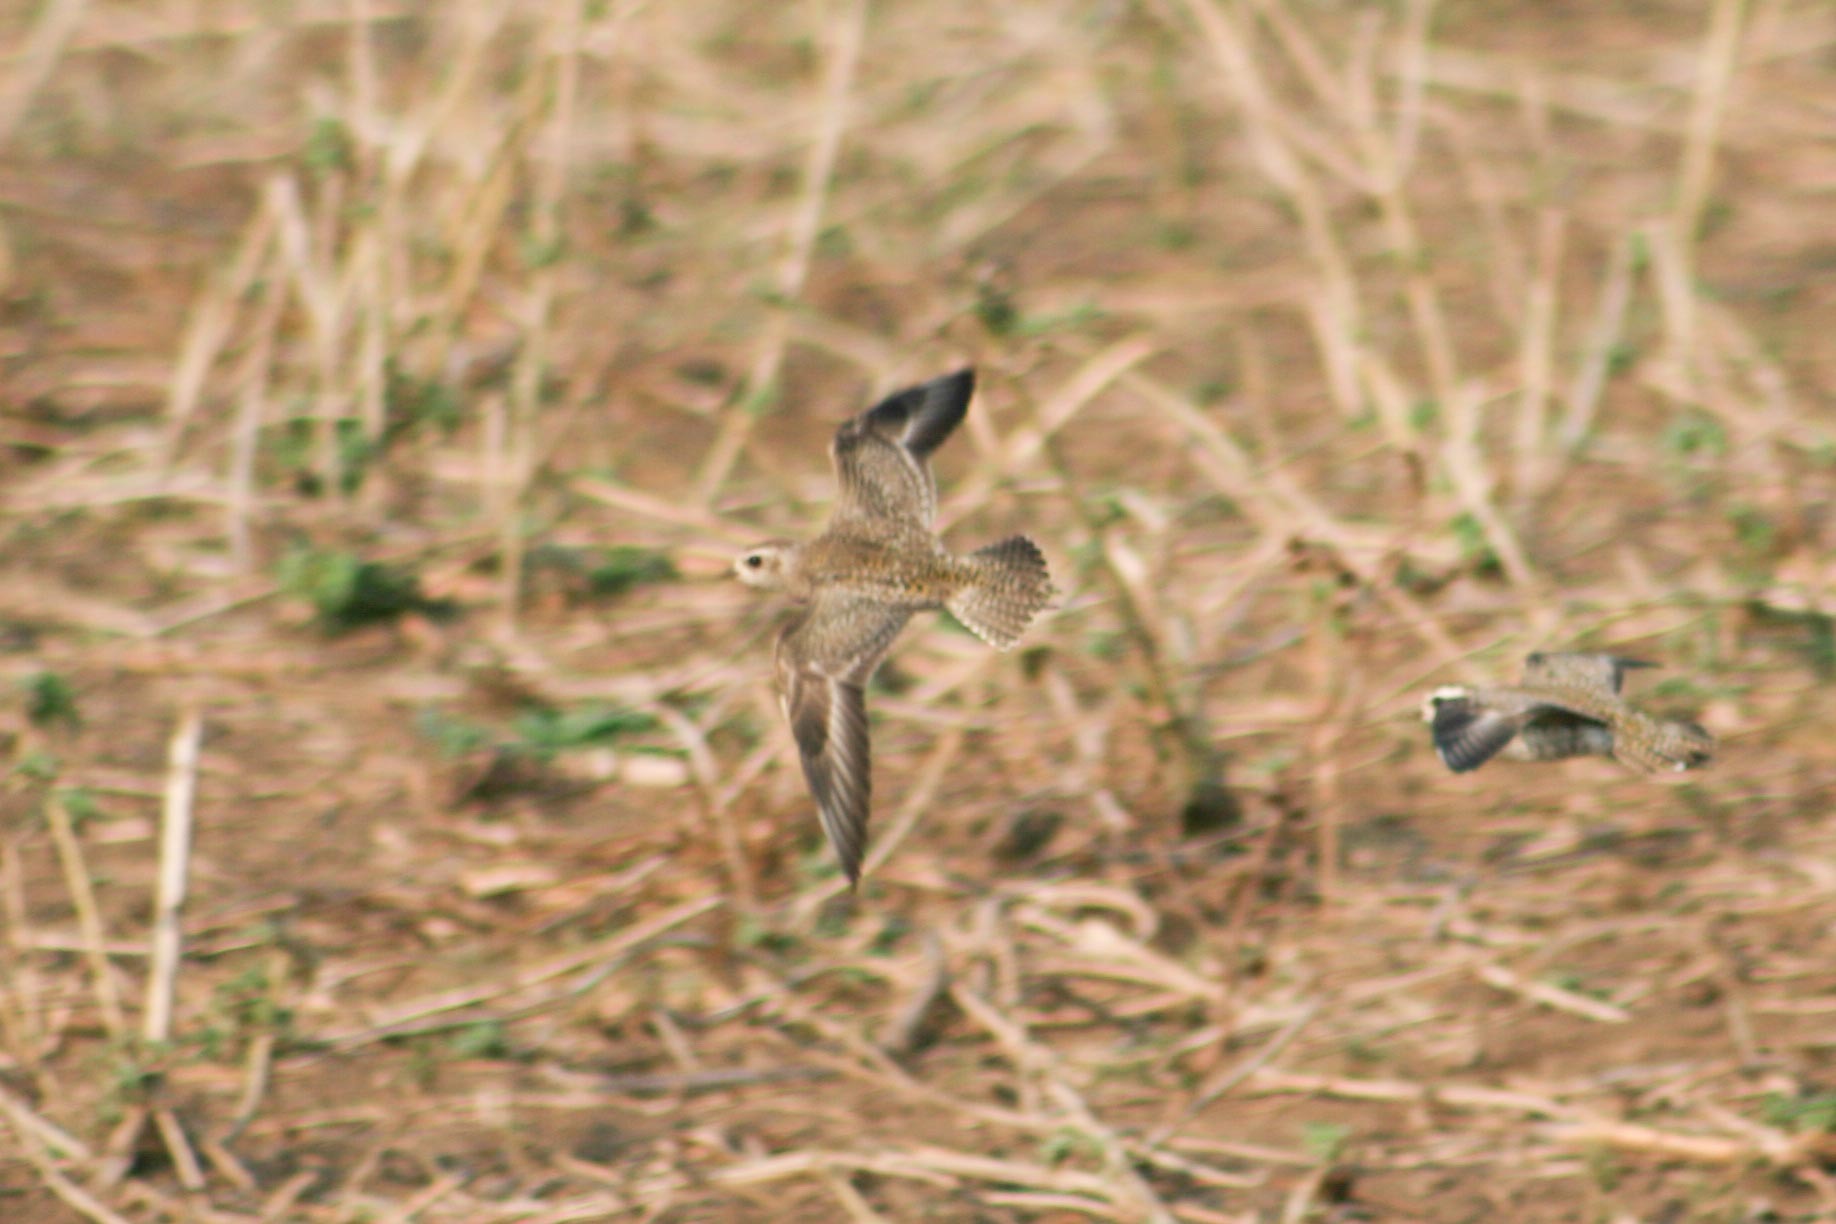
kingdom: Animalia
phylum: Chordata
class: Aves
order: Charadriiformes
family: Charadriidae
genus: Pluvialis
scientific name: Pluvialis dominica
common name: American golden plover
